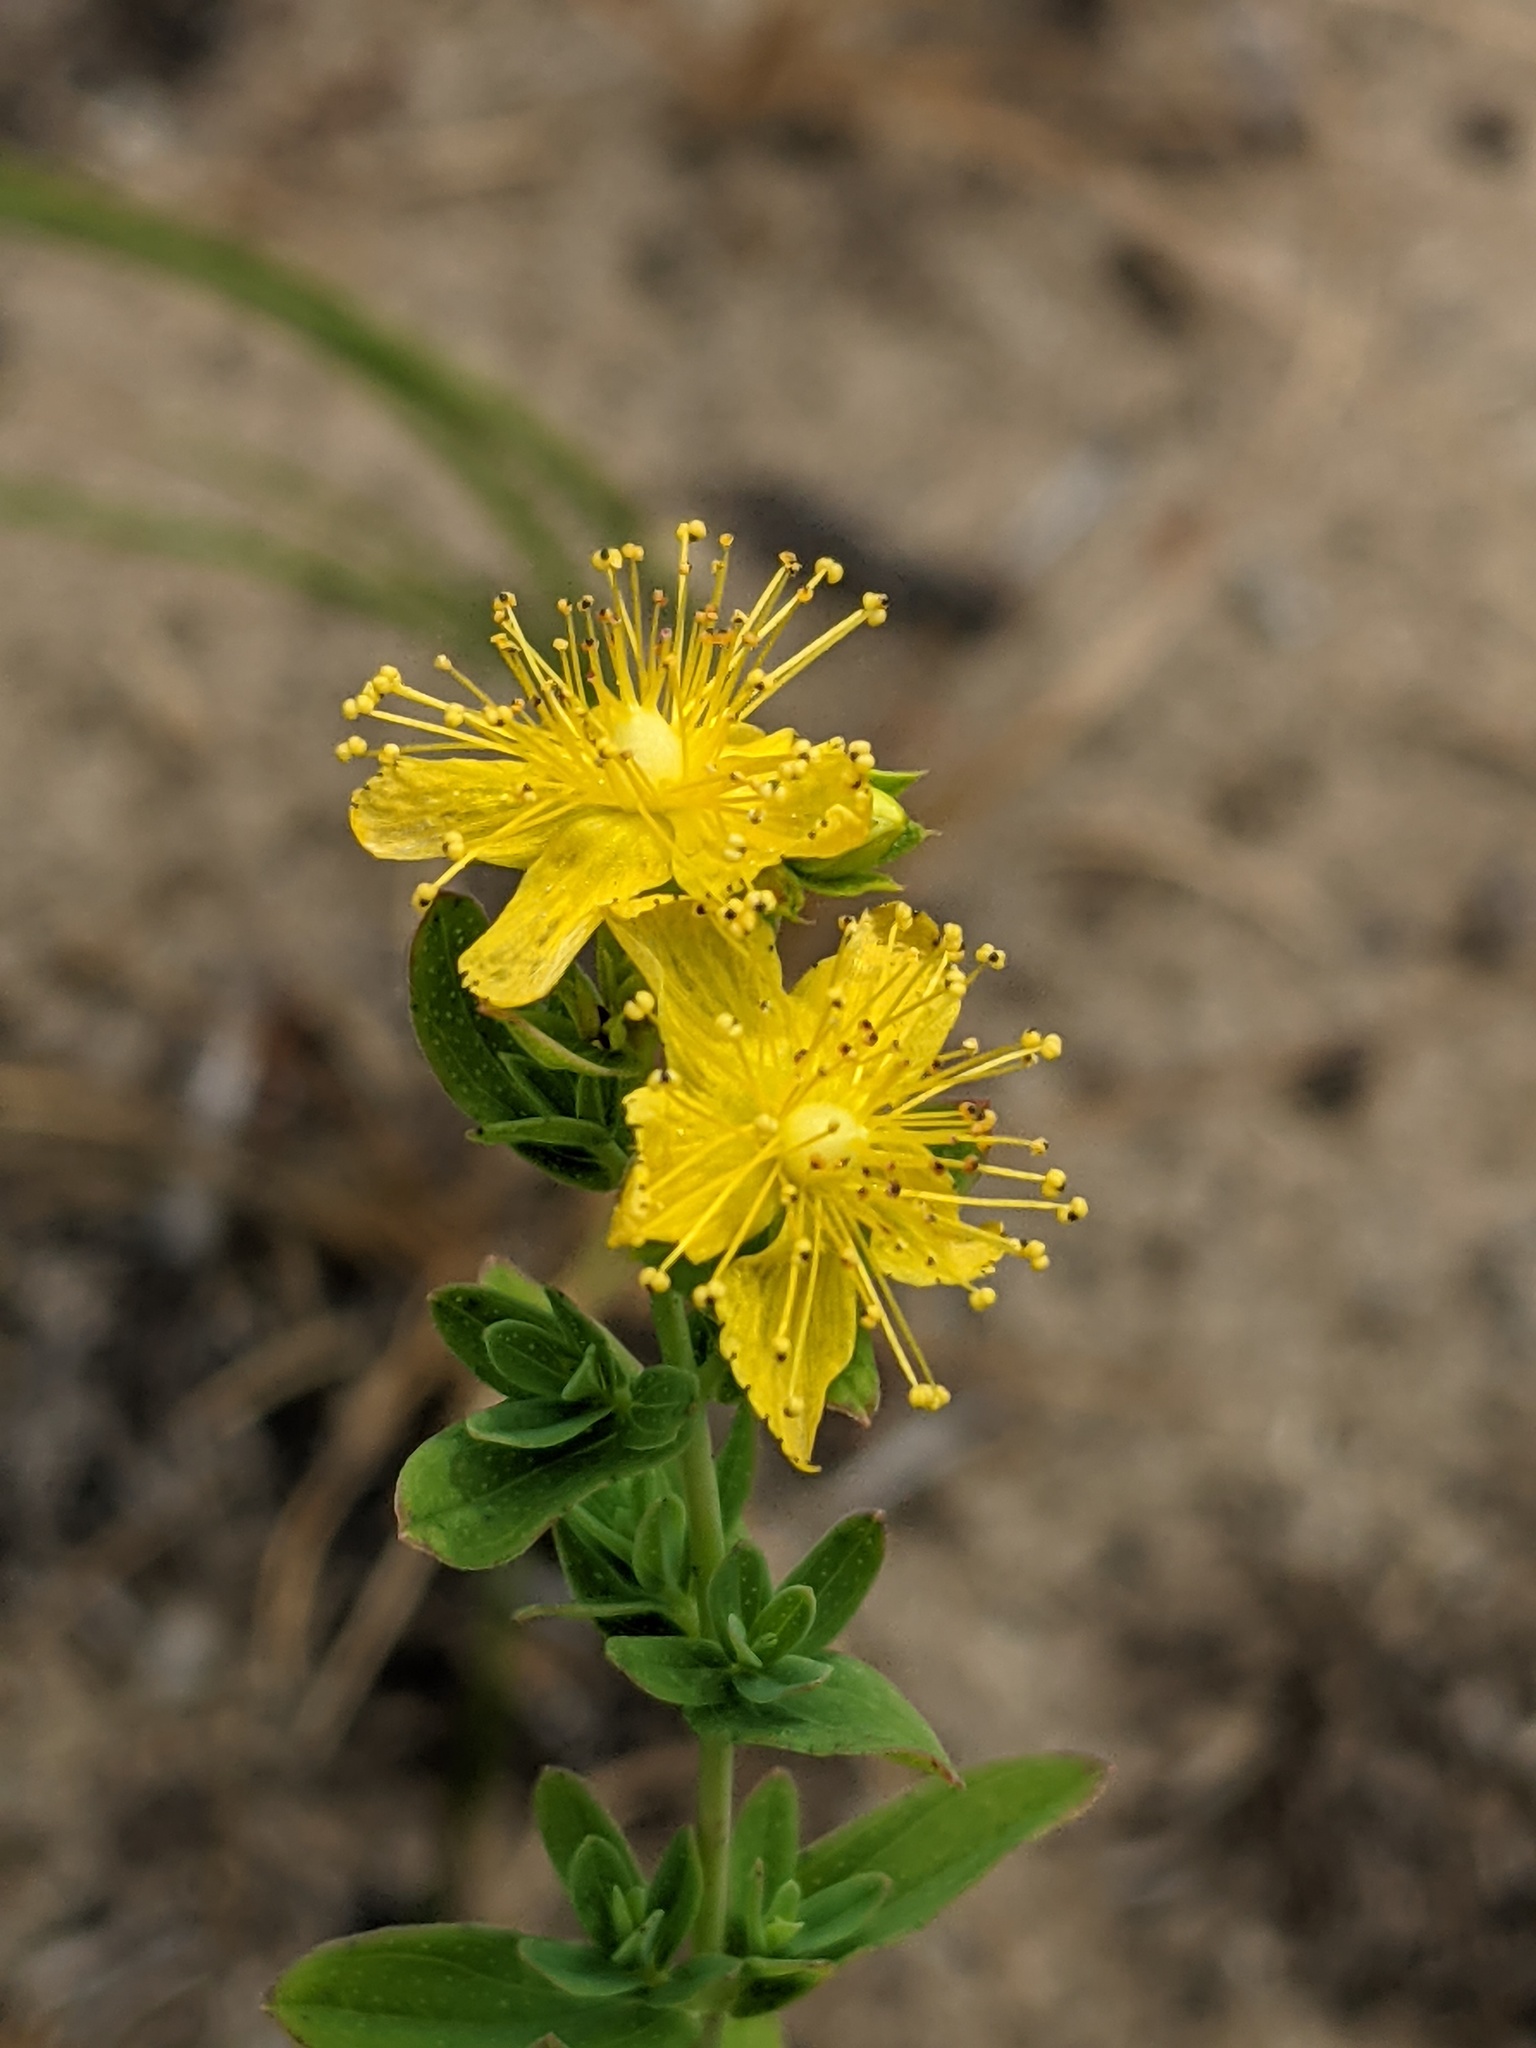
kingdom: Plantae
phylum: Tracheophyta
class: Magnoliopsida
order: Malpighiales
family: Hypericaceae
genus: Hypericum
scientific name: Hypericum perforatum
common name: Common st. johnswort
